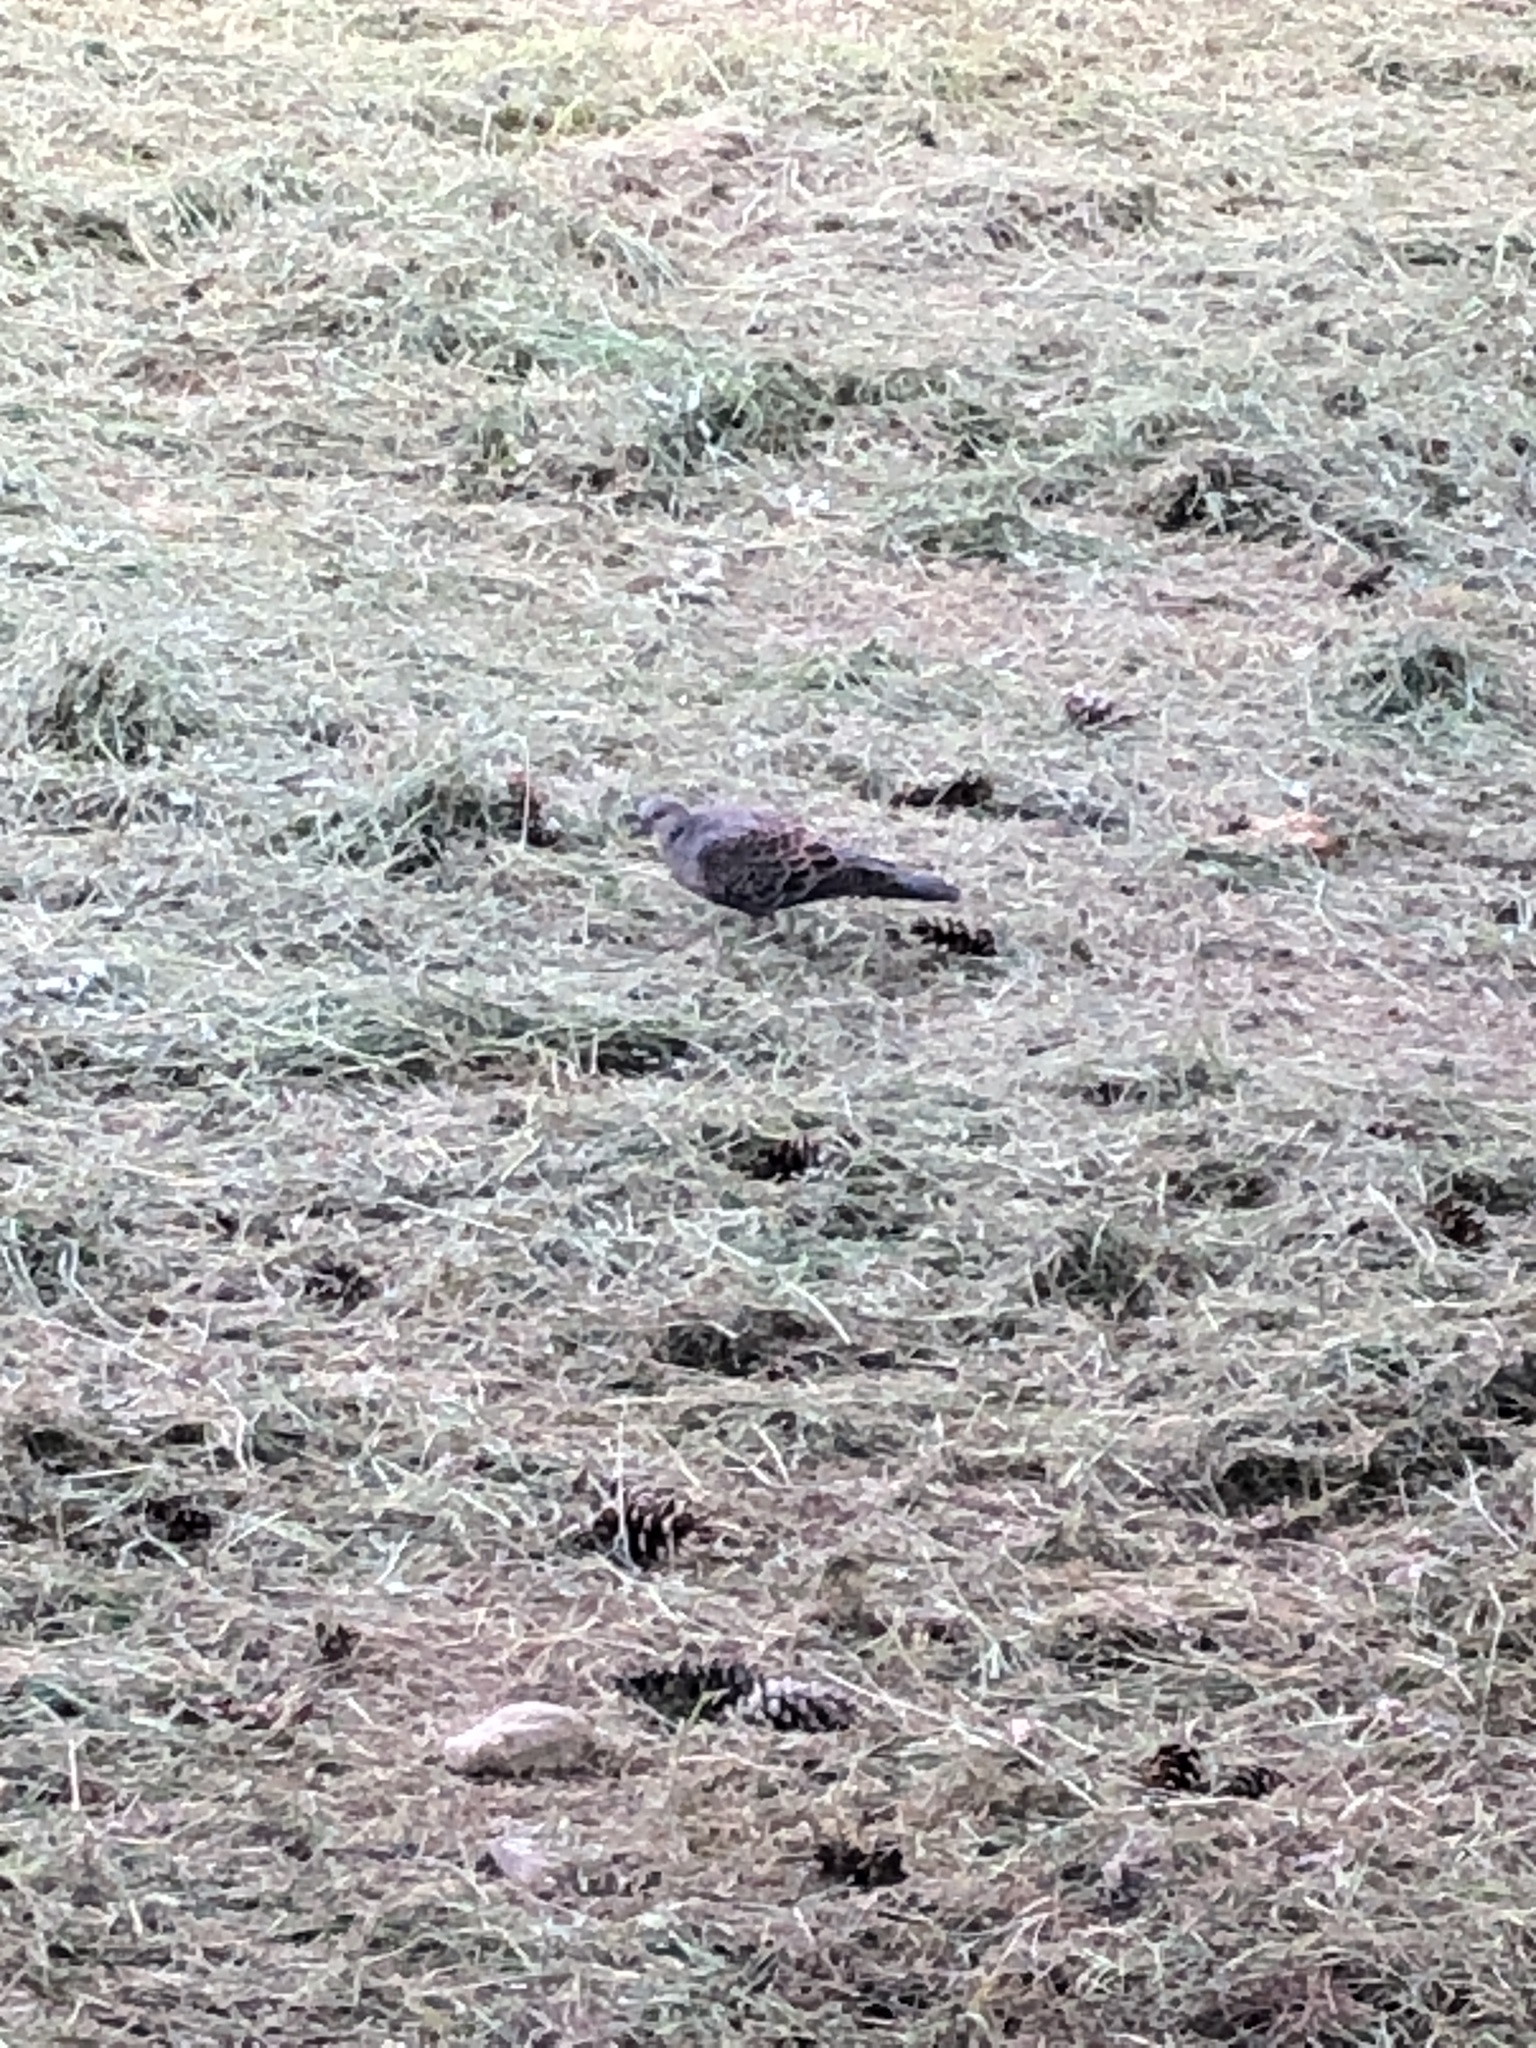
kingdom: Animalia
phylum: Chordata
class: Aves
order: Columbiformes
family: Columbidae
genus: Streptopelia
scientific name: Streptopelia orientalis
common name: Oriental turtle dove
